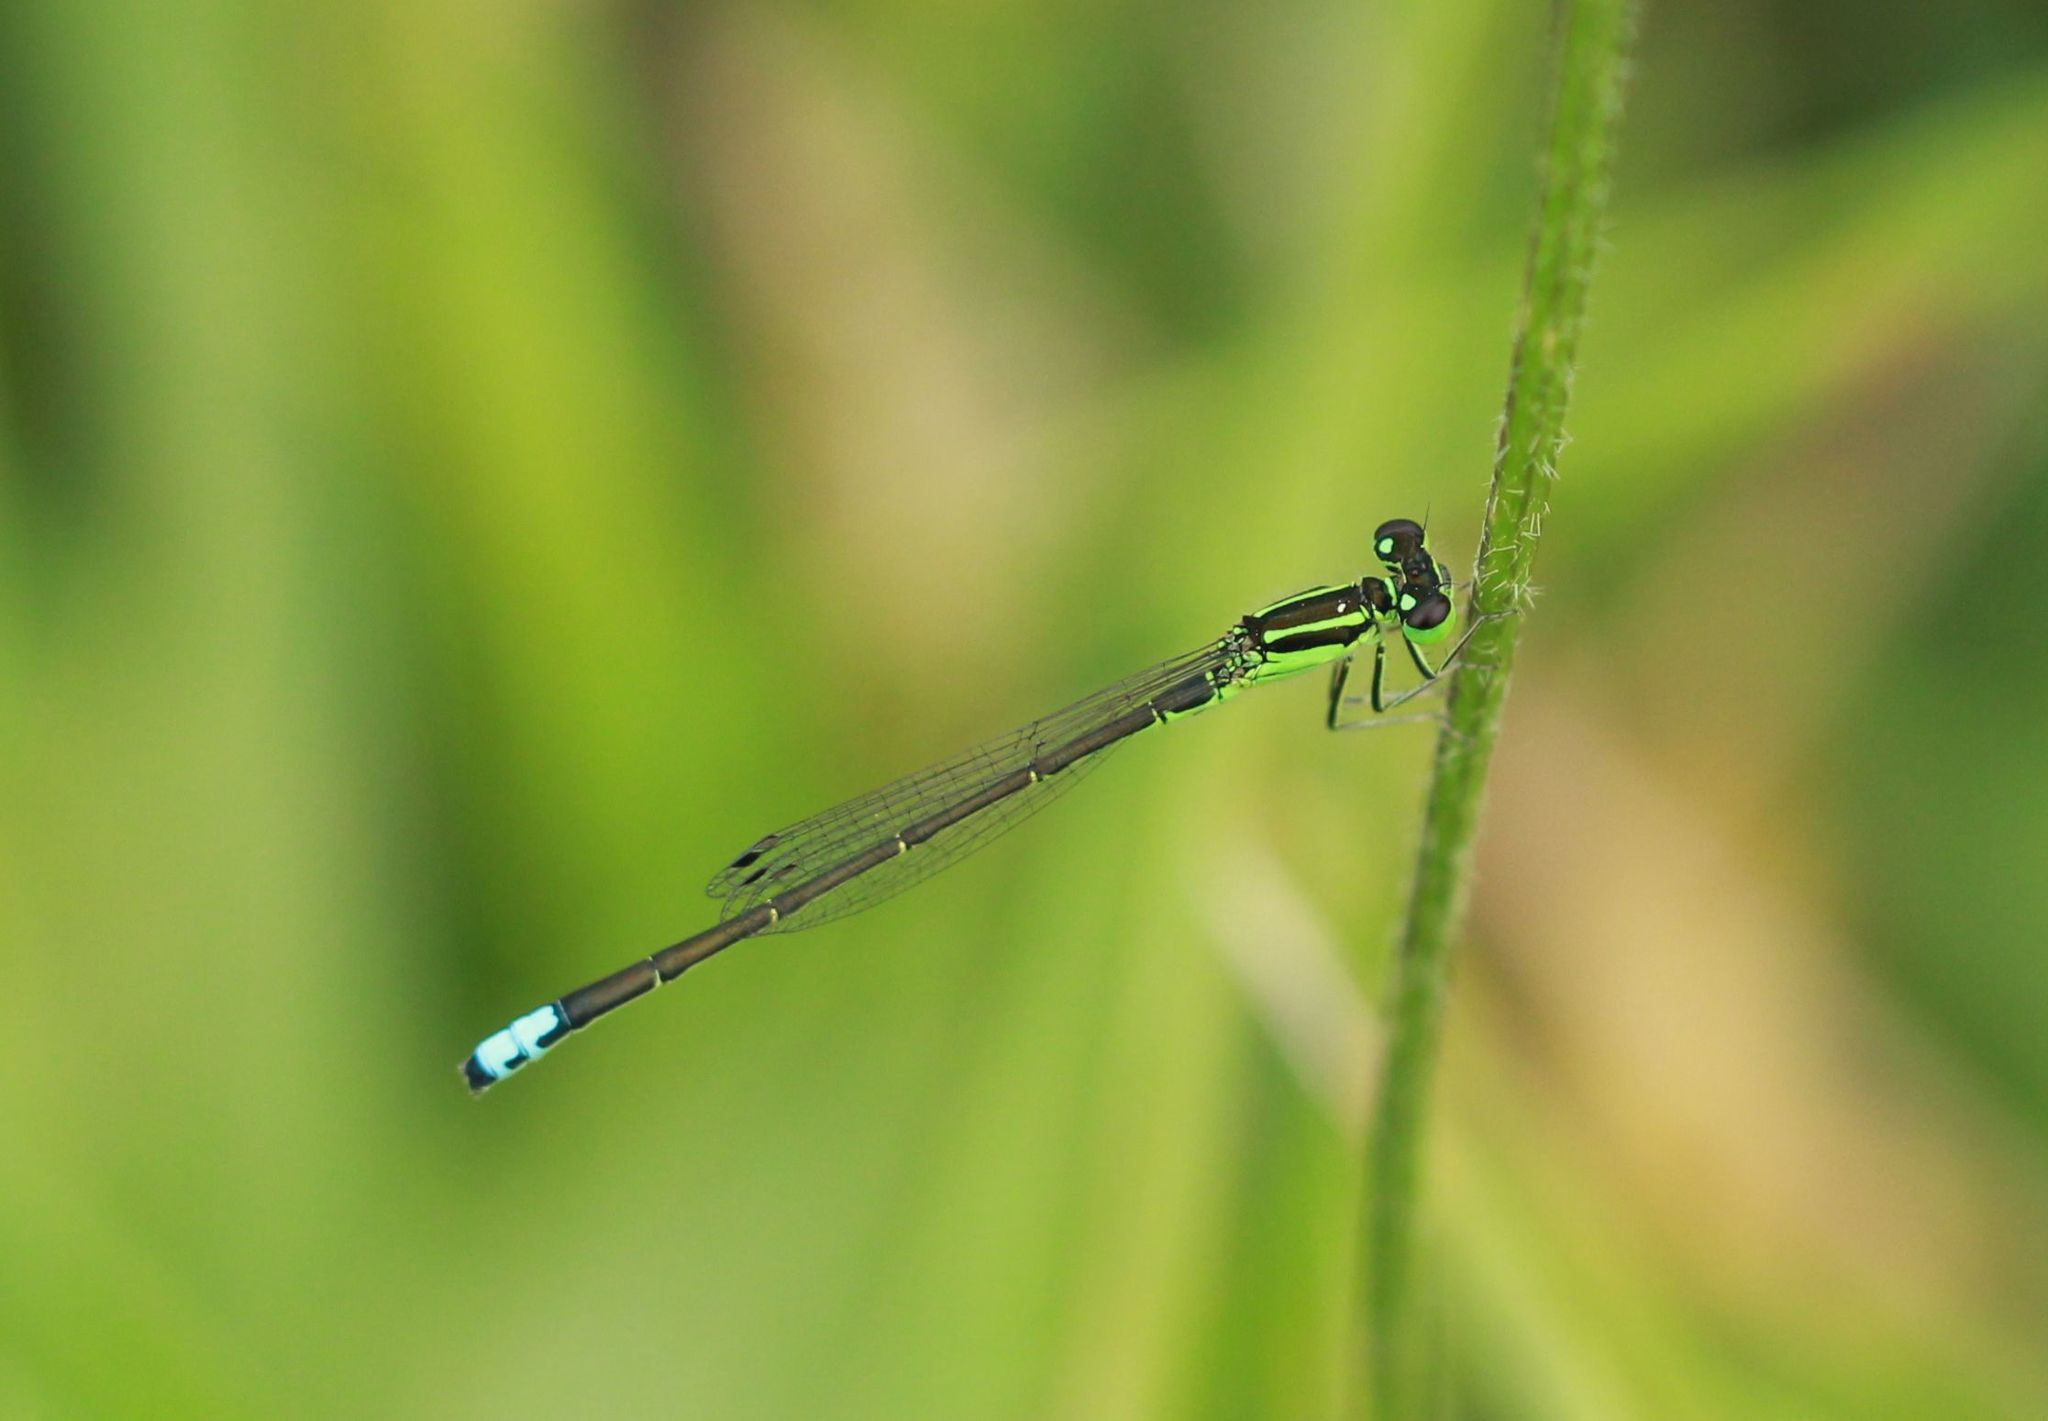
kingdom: Animalia
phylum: Arthropoda
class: Insecta
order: Odonata
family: Coenagrionidae
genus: Ischnura
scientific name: Ischnura verticalis
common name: Eastern forktail
